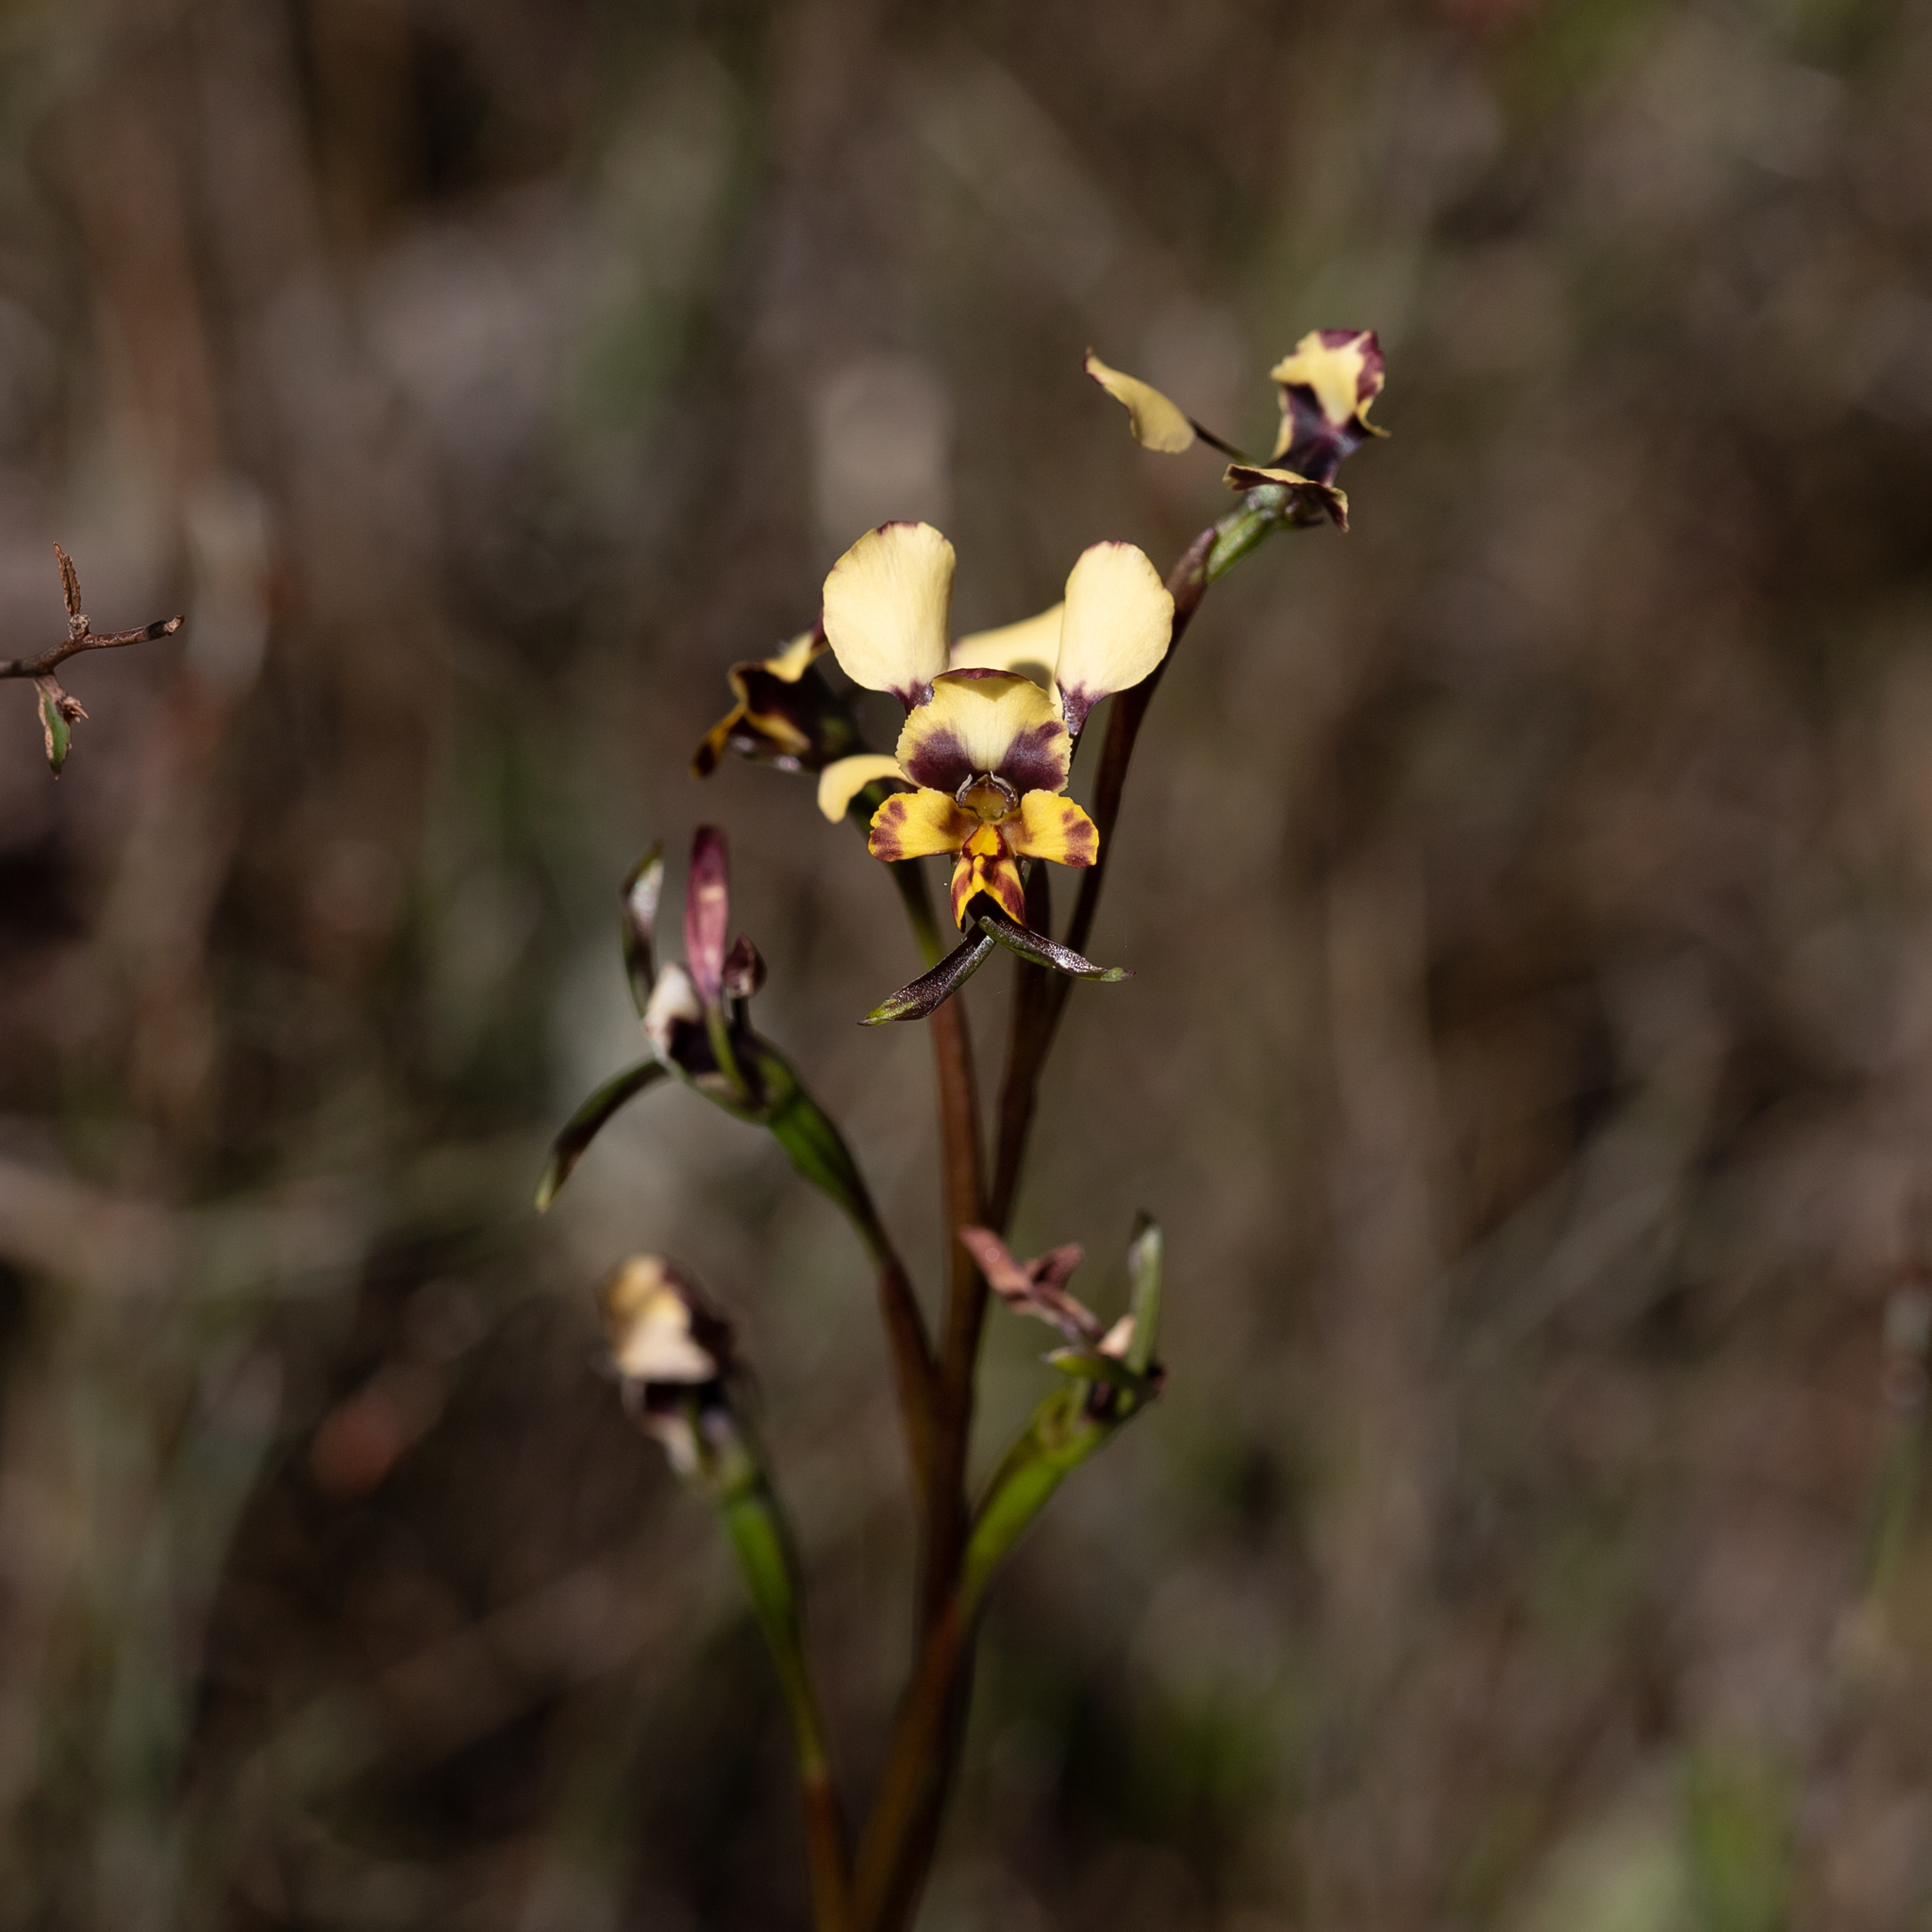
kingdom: Plantae
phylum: Tracheophyta
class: Liliopsida
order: Asparagales
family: Orchidaceae
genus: Diuris
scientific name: Diuris pardina
